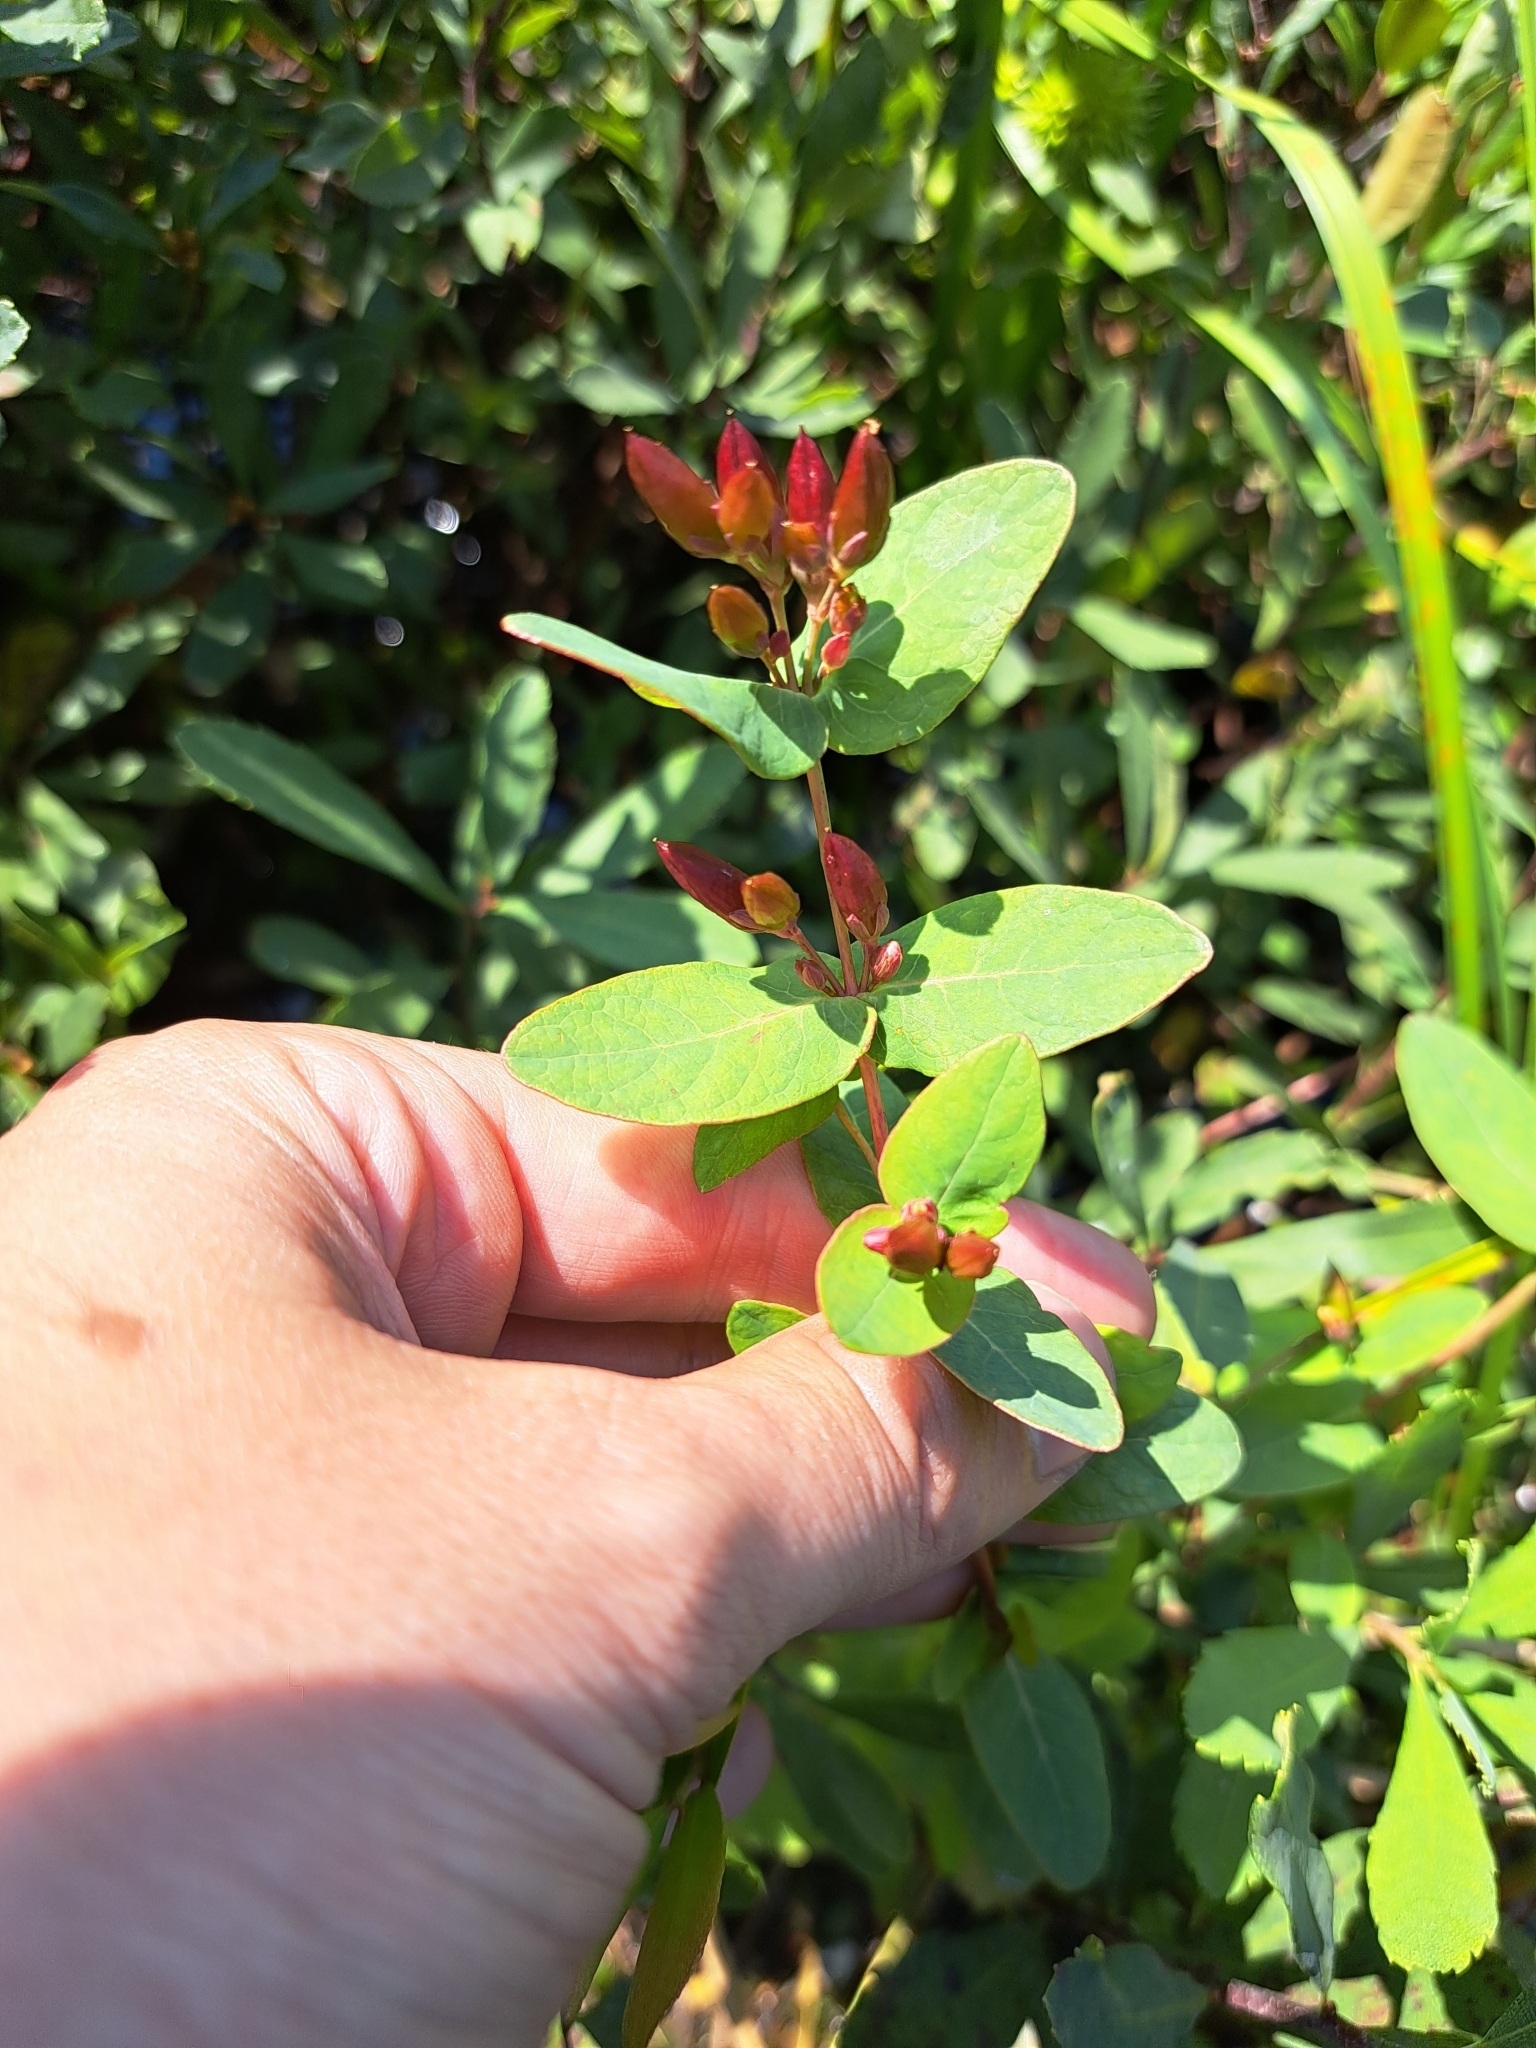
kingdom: Plantae
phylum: Tracheophyta
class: Magnoliopsida
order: Malpighiales
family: Hypericaceae
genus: Triadenum
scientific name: Triadenum fraseri
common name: Fraser's marsh st. johnswort
